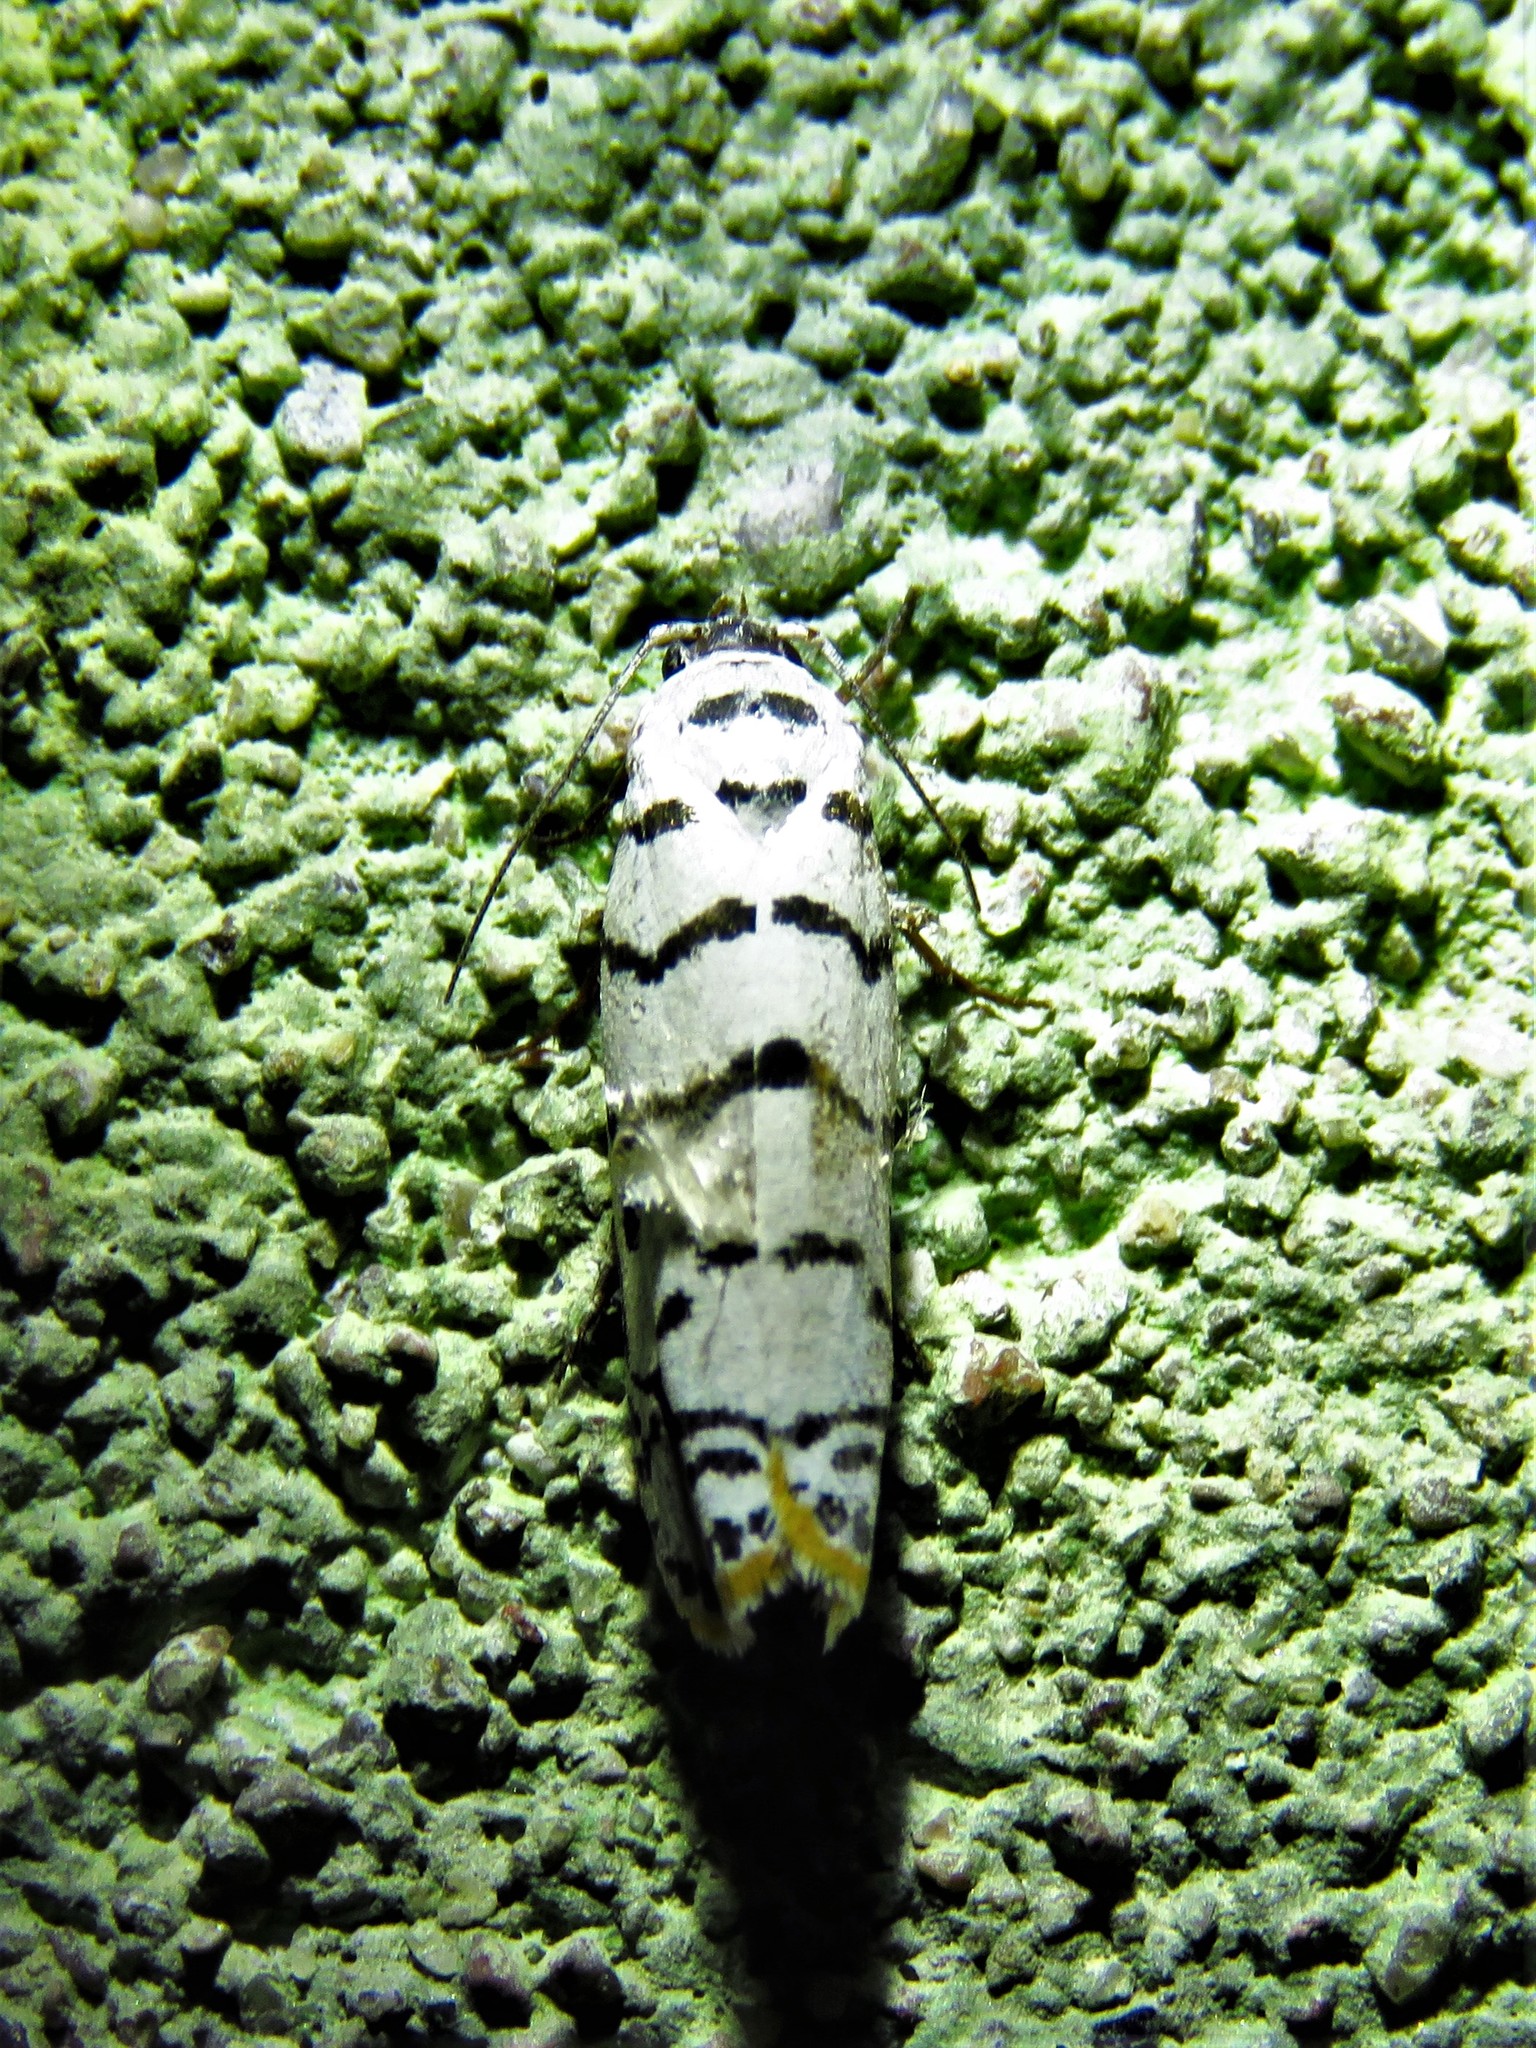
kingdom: Animalia
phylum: Arthropoda
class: Insecta
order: Lepidoptera
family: Ethmiidae
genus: Ethmia
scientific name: Ethmia delliella
